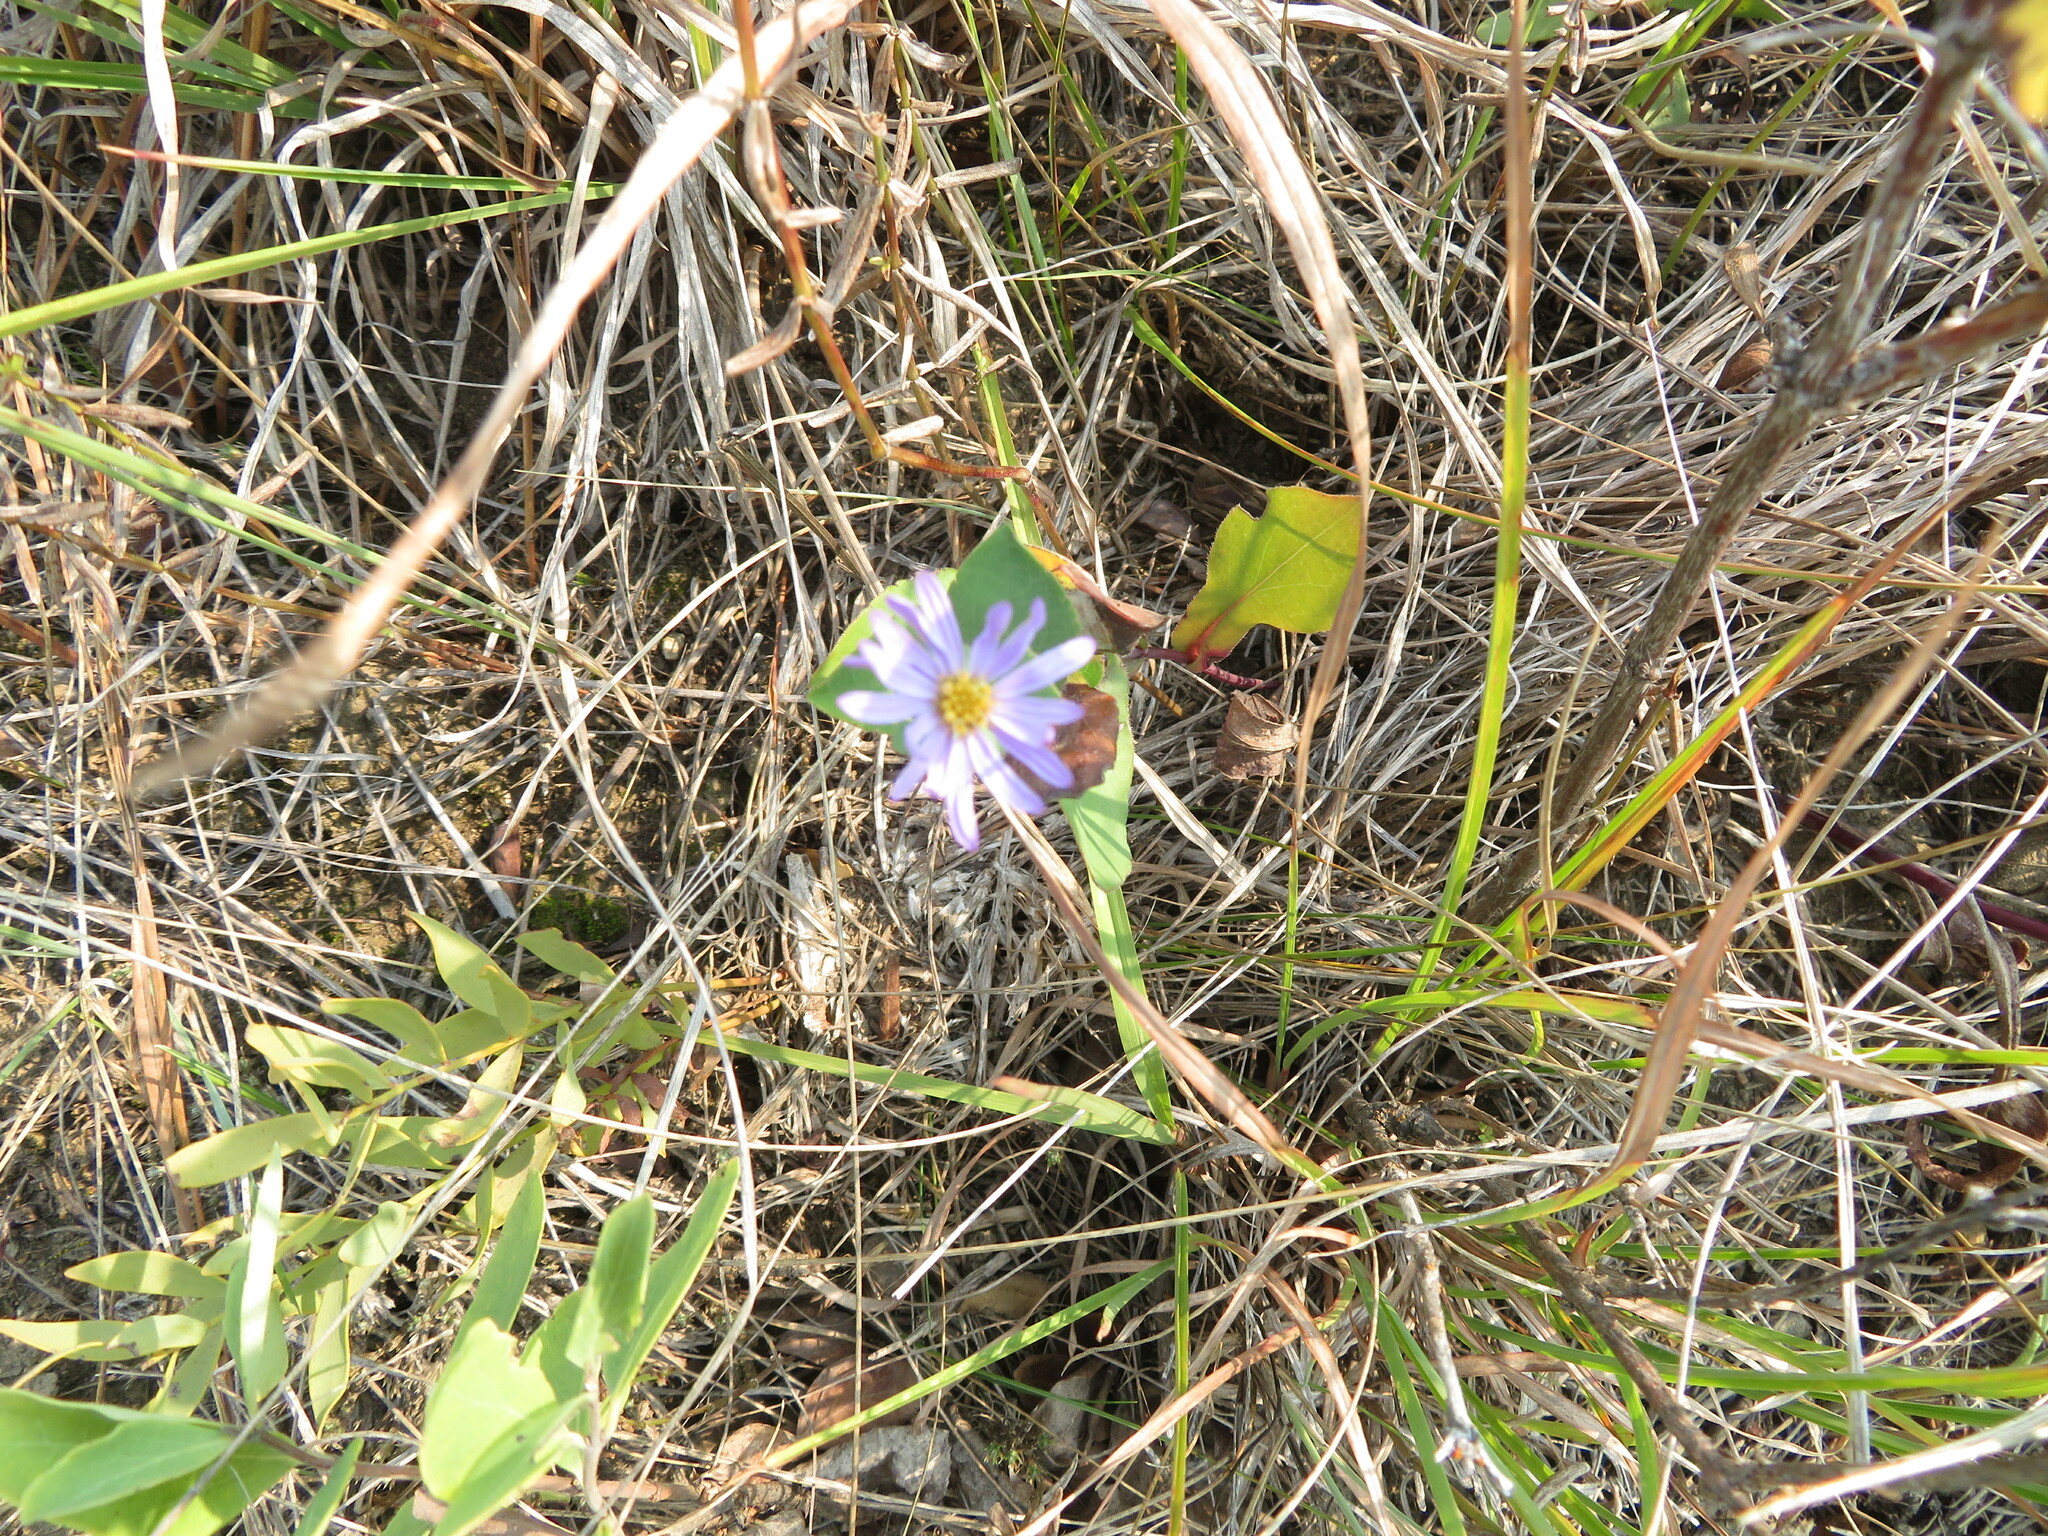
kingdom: Plantae
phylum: Tracheophyta
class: Magnoliopsida
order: Asterales
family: Asteraceae
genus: Symphyotrichum
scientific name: Symphyotrichum laeve
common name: Glaucous aster
